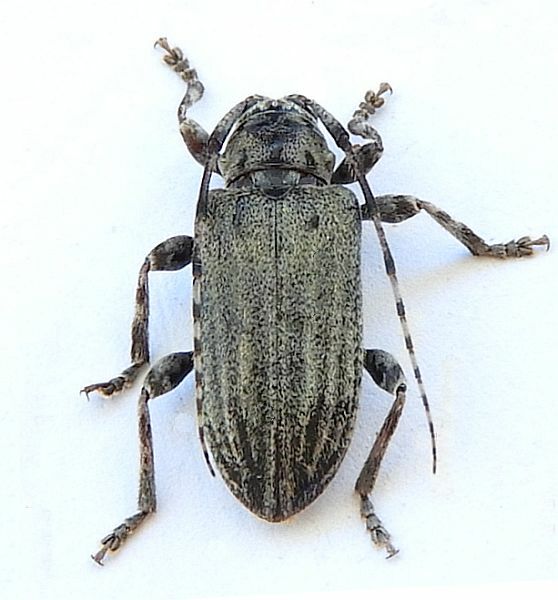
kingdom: Animalia
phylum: Arthropoda
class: Insecta
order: Coleoptera
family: Cerambycidae
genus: Glaucotes
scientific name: Glaucotes yuccivorus
